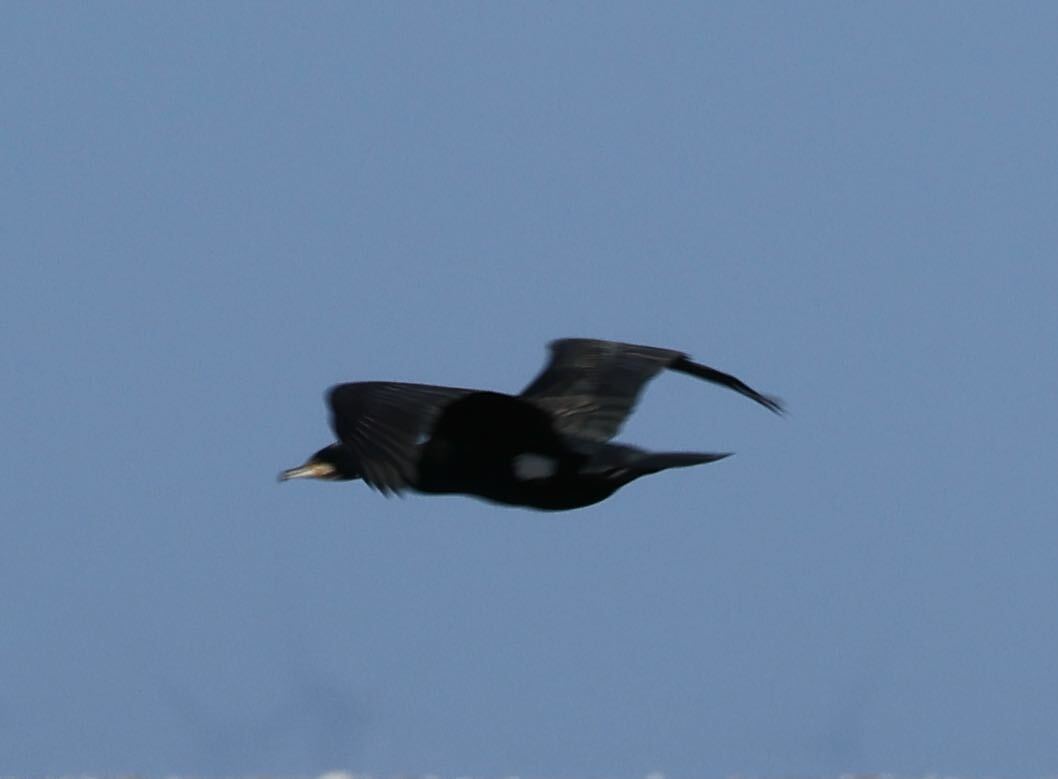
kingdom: Animalia
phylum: Chordata
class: Aves
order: Suliformes
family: Phalacrocoracidae
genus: Phalacrocorax
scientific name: Phalacrocorax carbo
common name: Great cormorant
